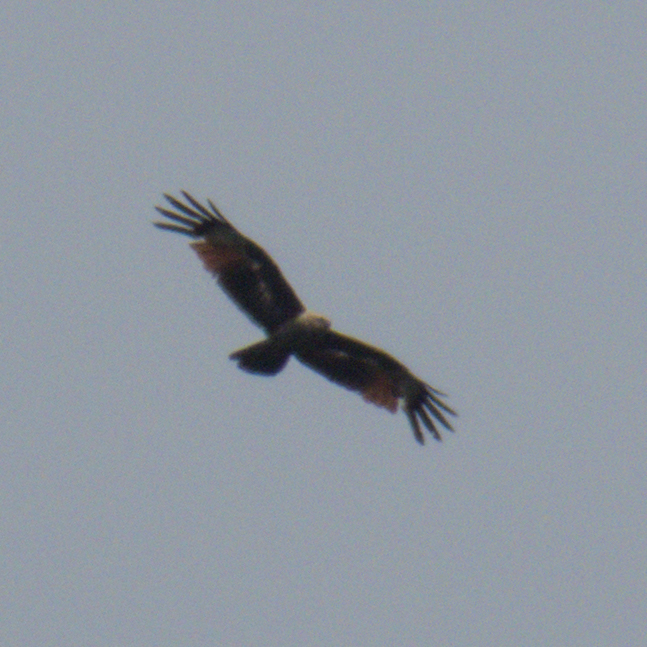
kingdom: Animalia
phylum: Chordata
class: Aves
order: Accipitriformes
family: Accipitridae
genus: Haliastur
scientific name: Haliastur indus
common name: Brahminy kite
